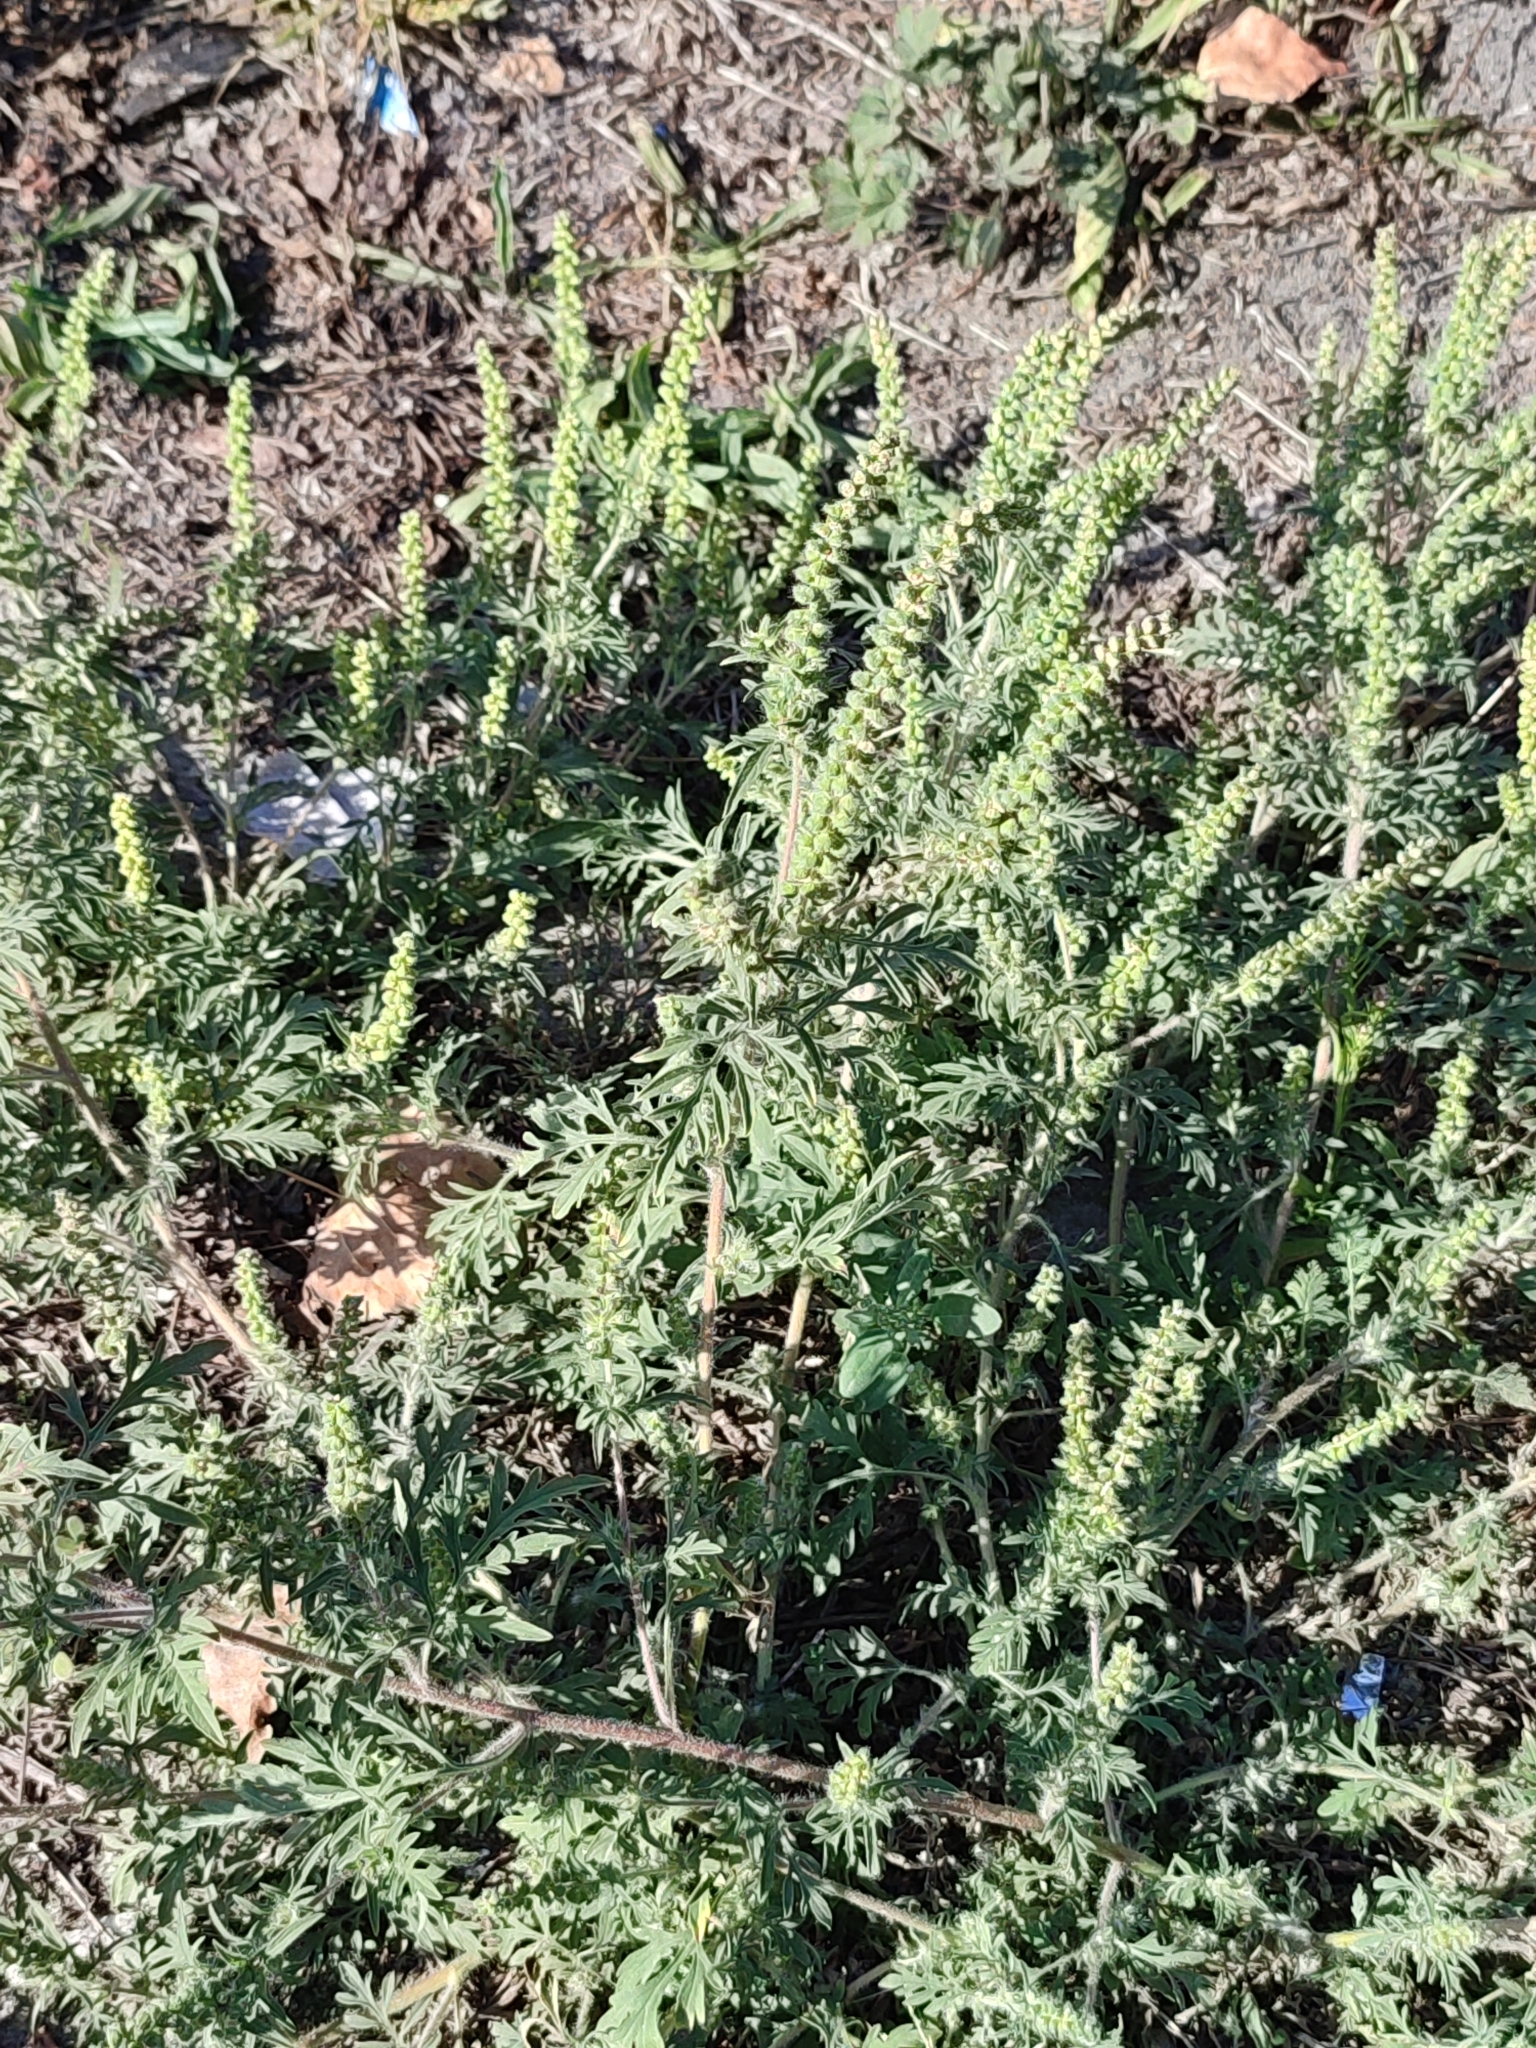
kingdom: Plantae
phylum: Tracheophyta
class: Magnoliopsida
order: Asterales
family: Asteraceae
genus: Ambrosia
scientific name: Ambrosia artemisiifolia
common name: Annual ragweed
